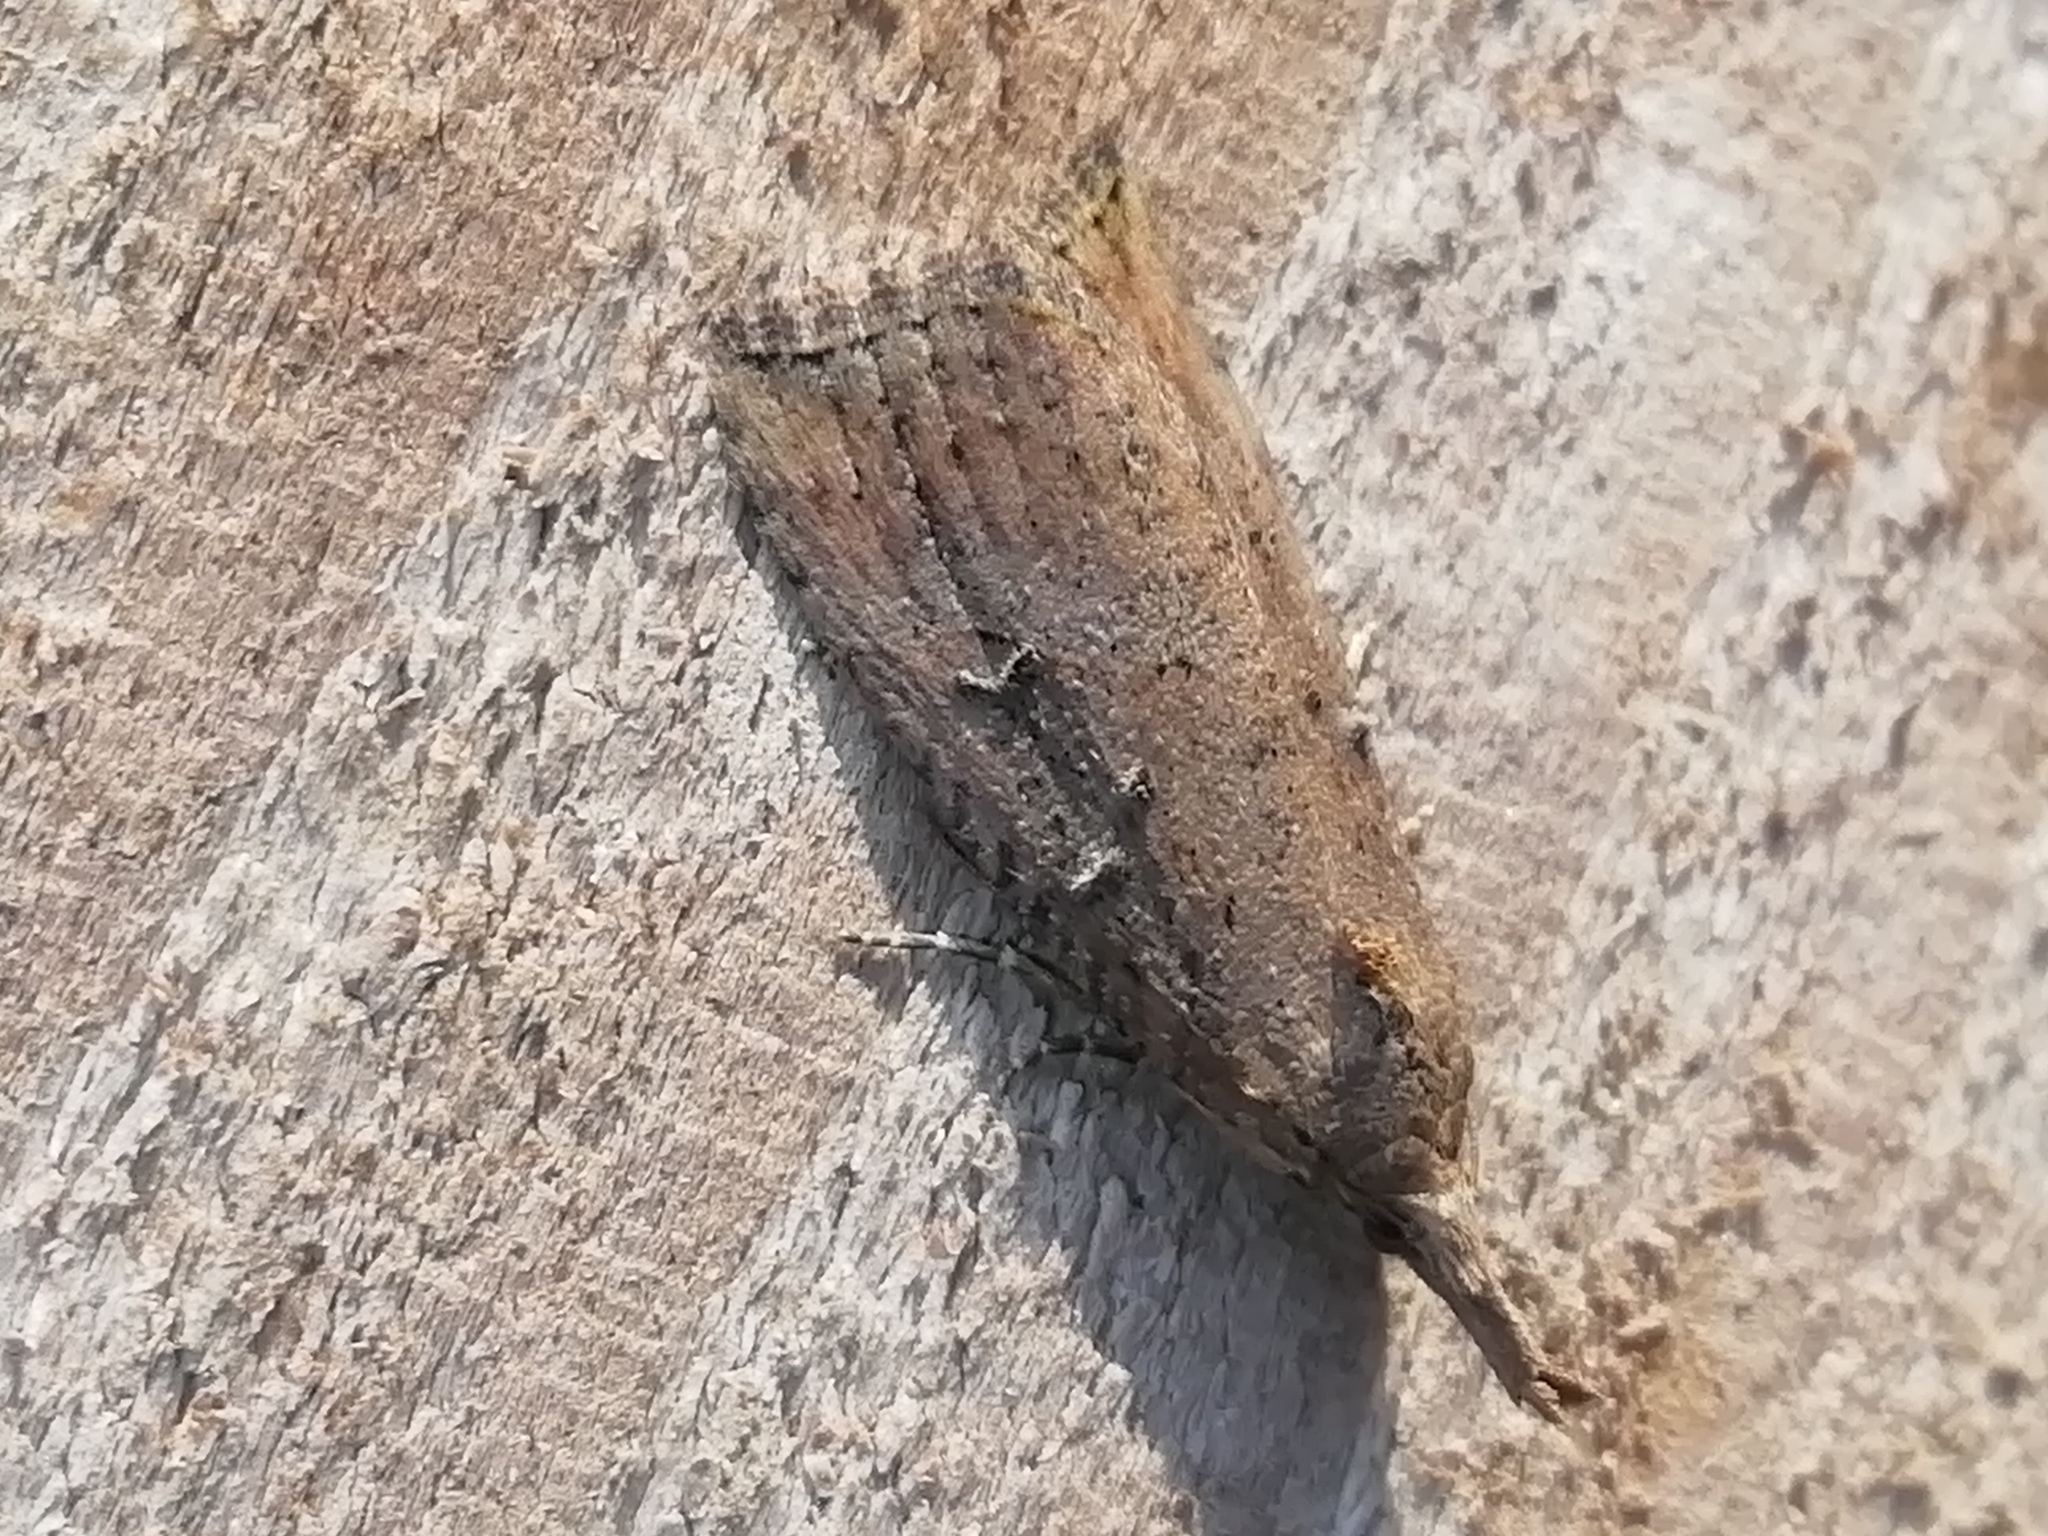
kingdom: Animalia
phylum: Arthropoda
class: Insecta
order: Lepidoptera
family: Erebidae
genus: Hypena
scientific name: Hypena rostralis
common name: Buttoned snout
